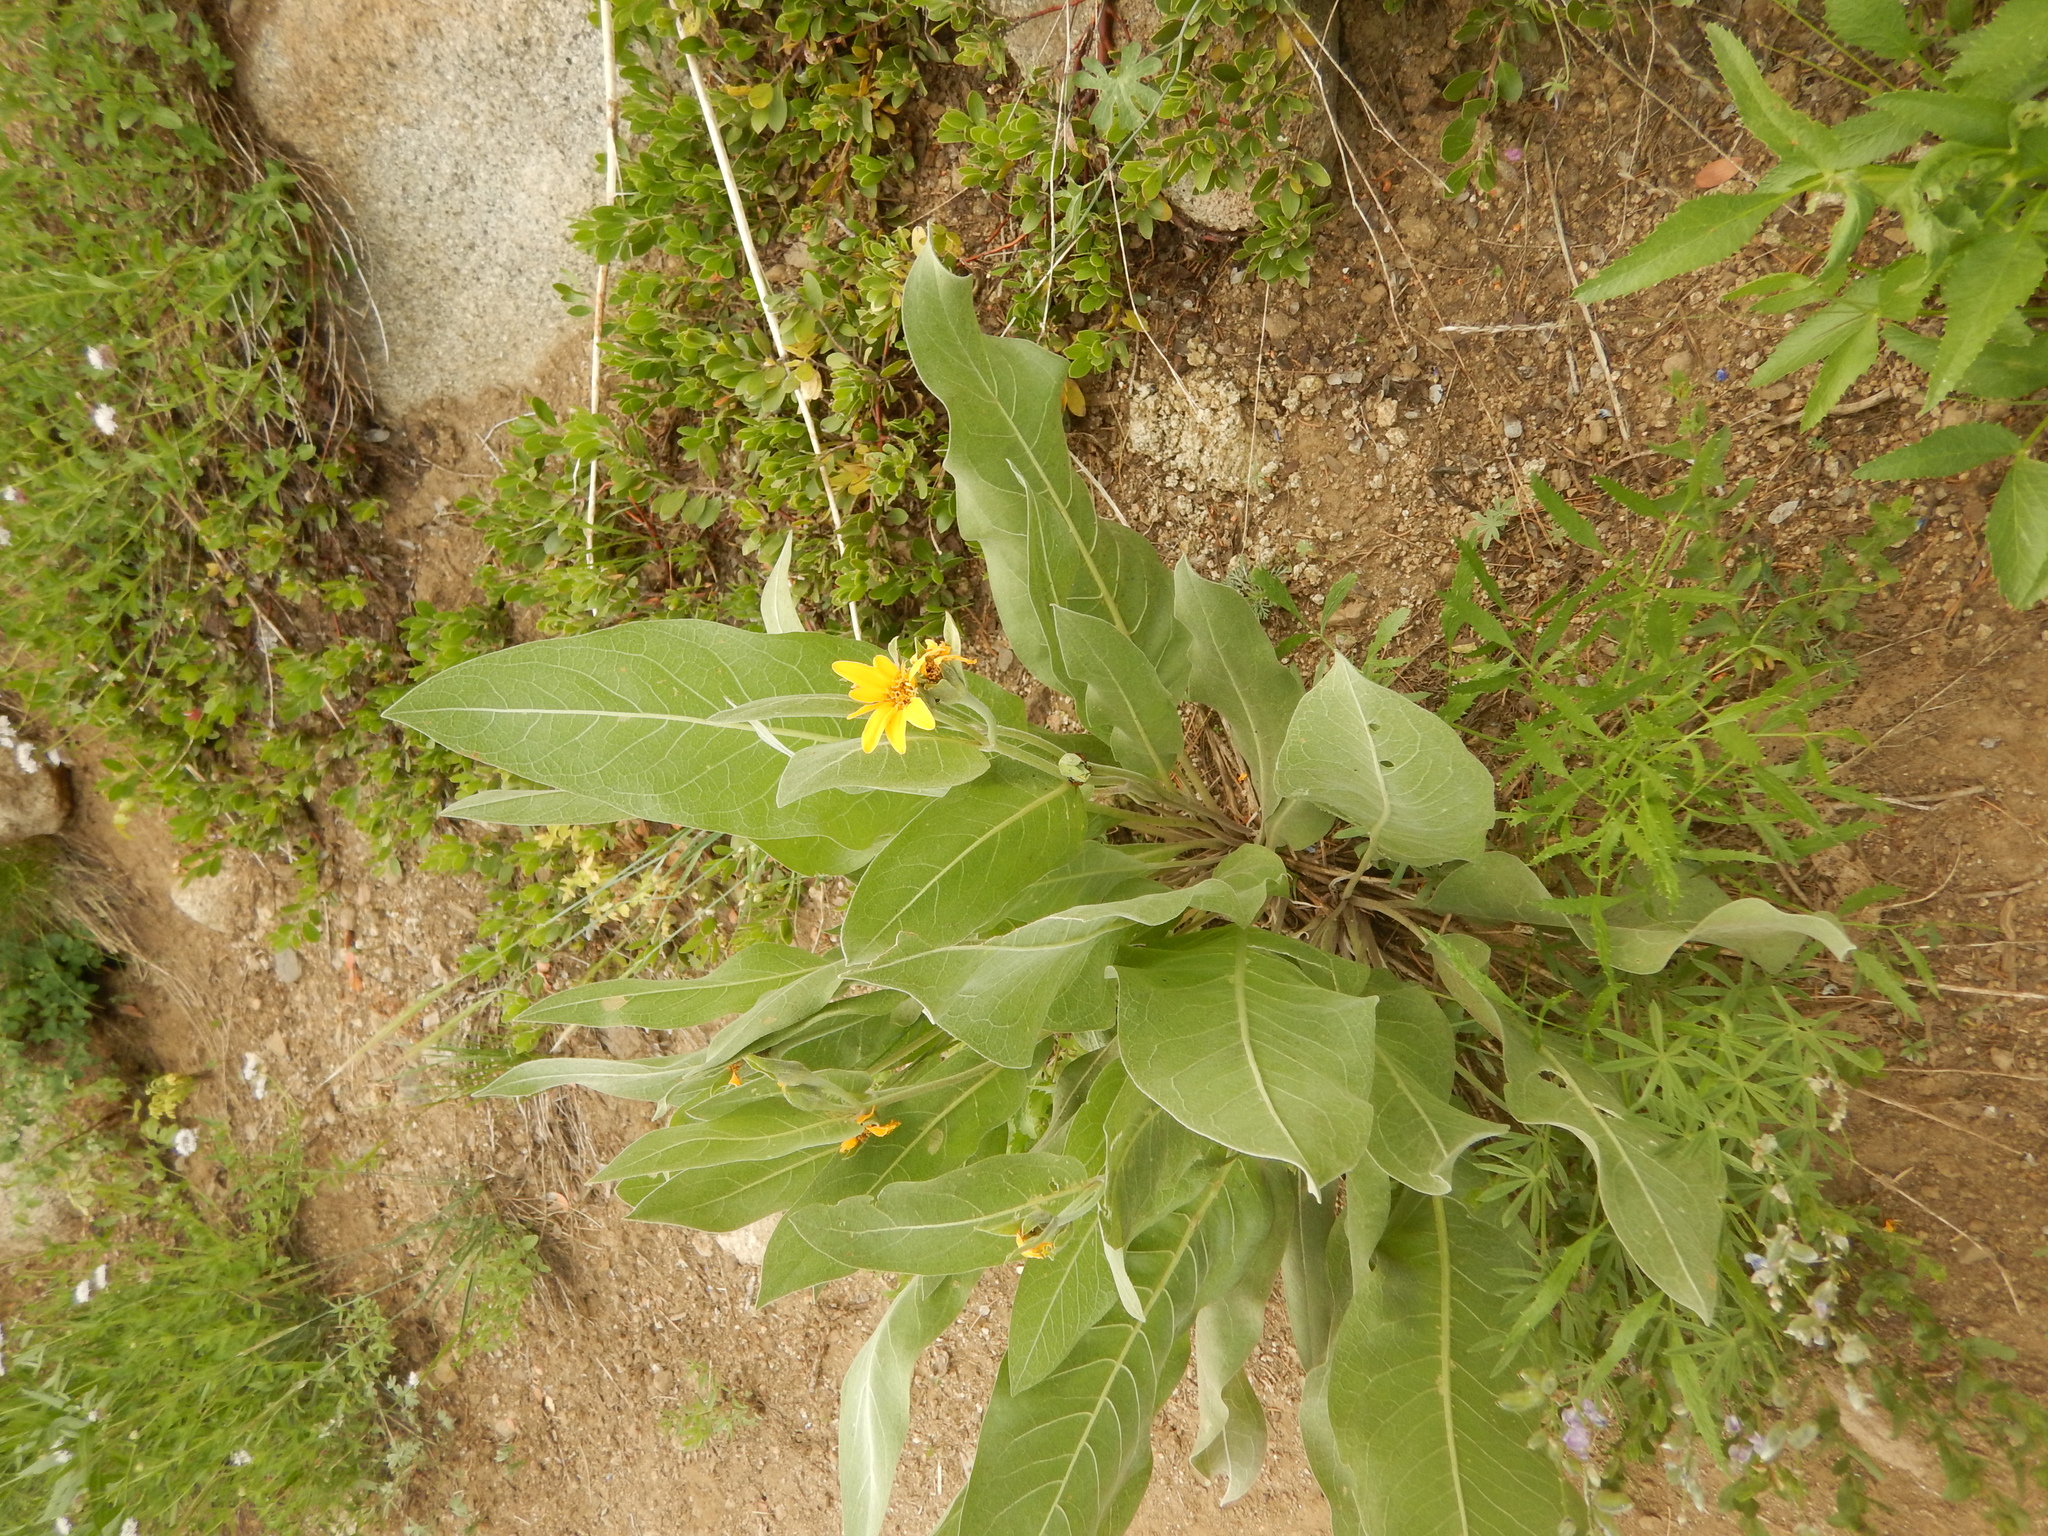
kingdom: Plantae
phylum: Tracheophyta
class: Magnoliopsida
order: Asterales
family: Asteraceae
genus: Wyethia
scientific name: Wyethia mollis
